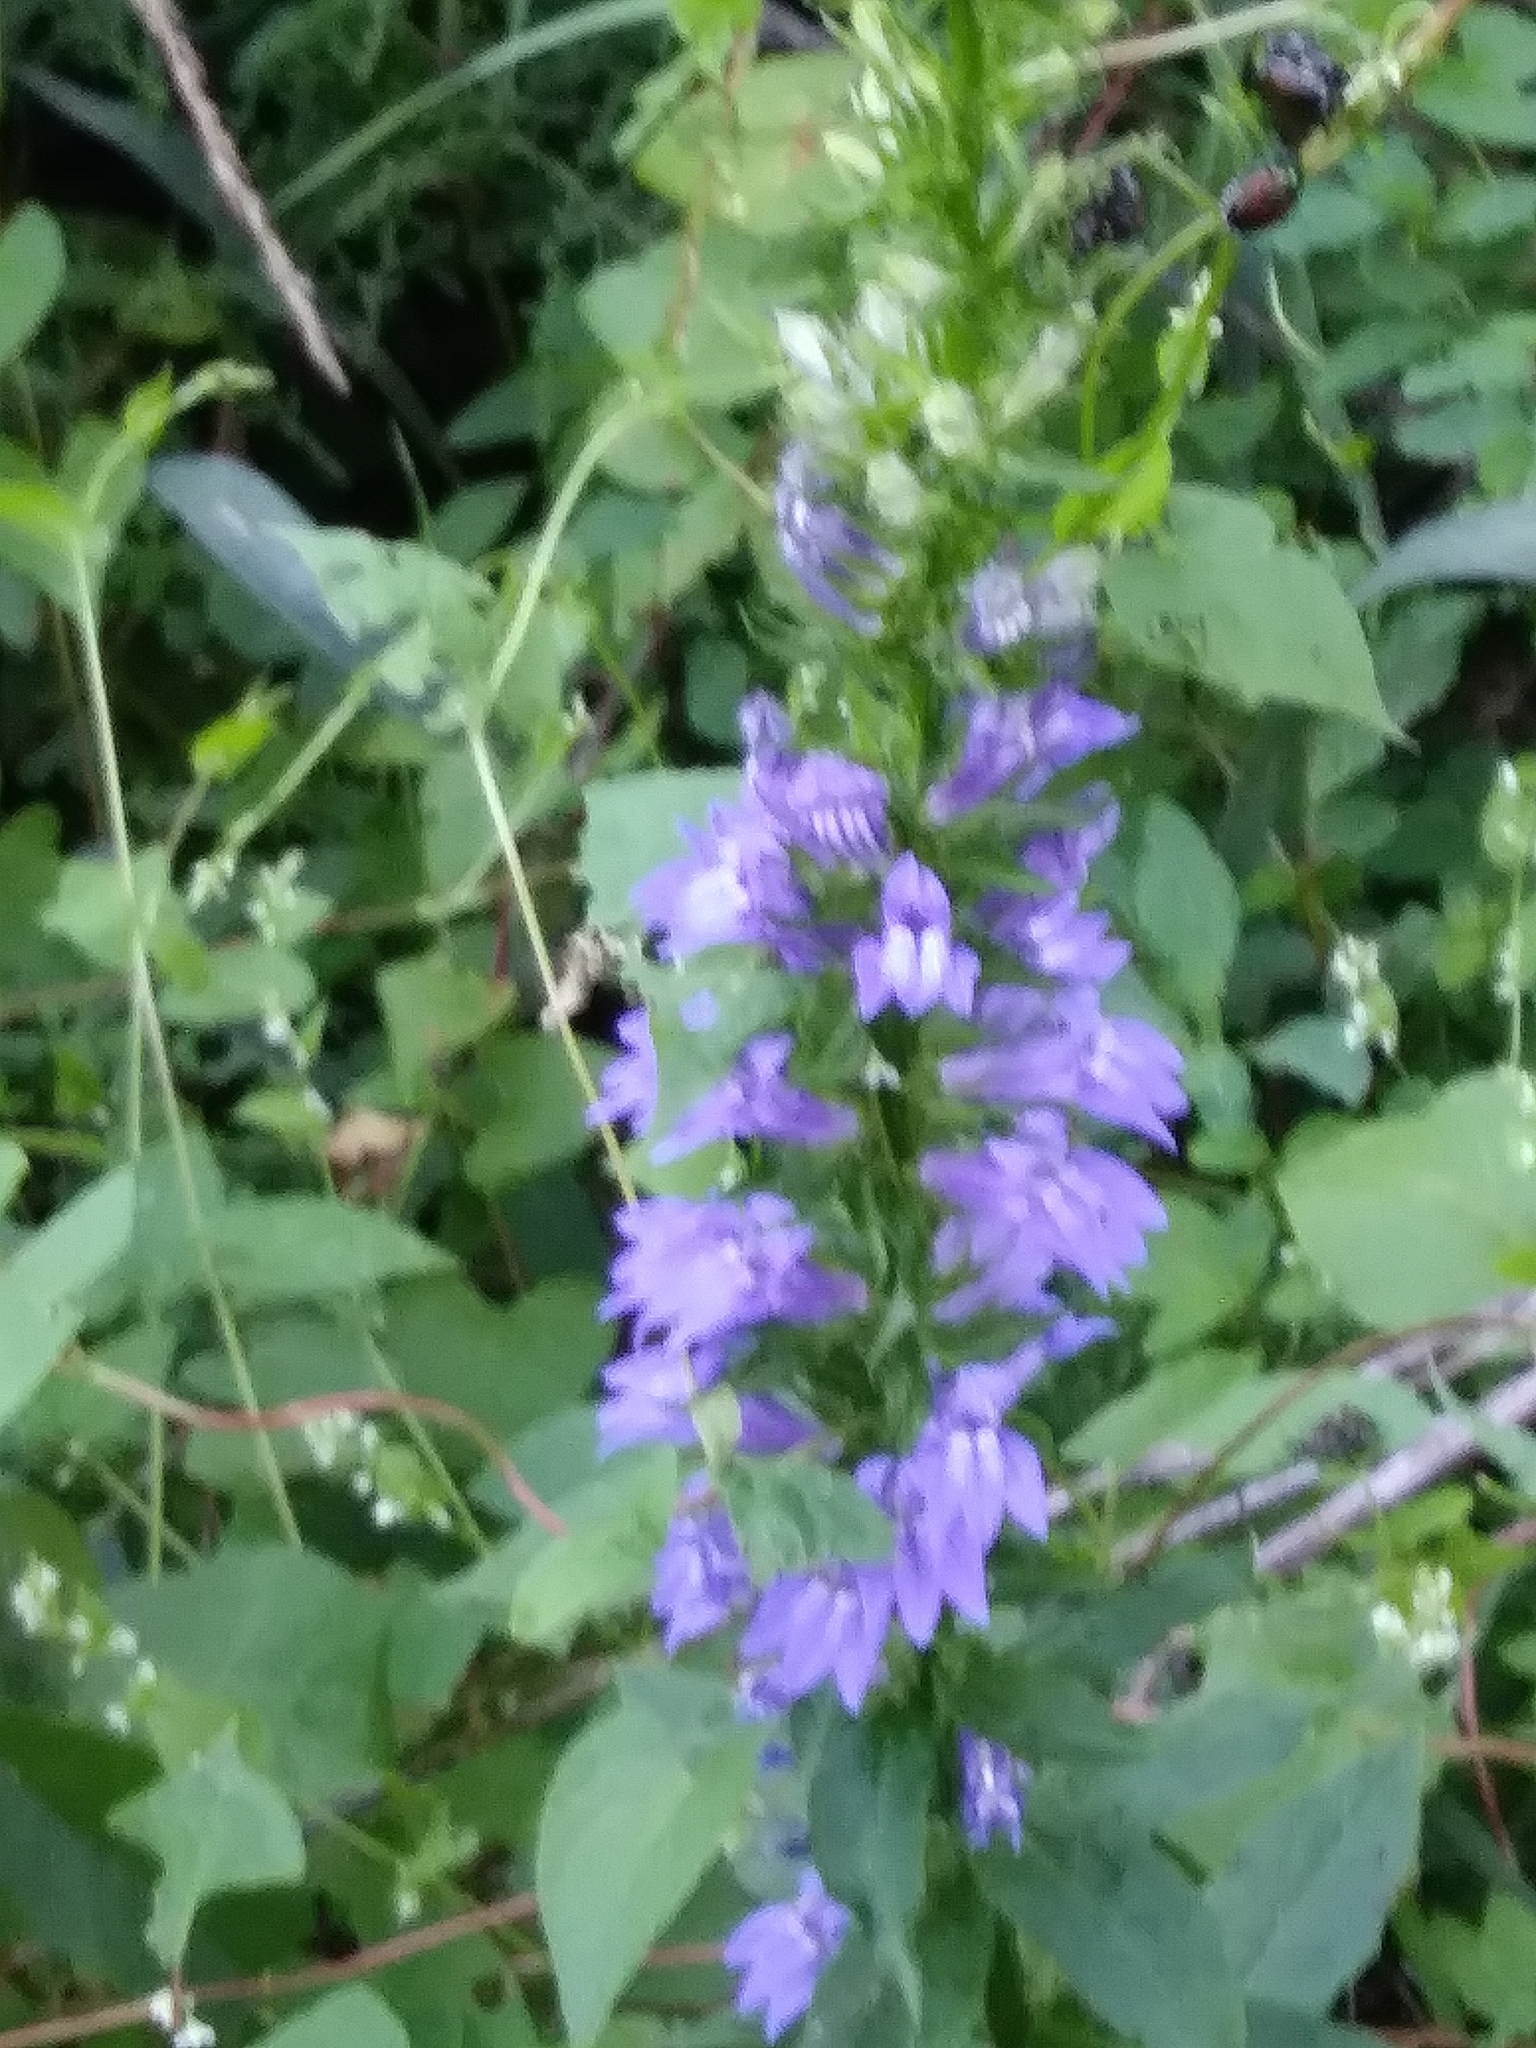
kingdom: Plantae
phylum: Tracheophyta
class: Magnoliopsida
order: Asterales
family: Campanulaceae
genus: Lobelia
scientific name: Lobelia siphilitica
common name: Great lobelia
